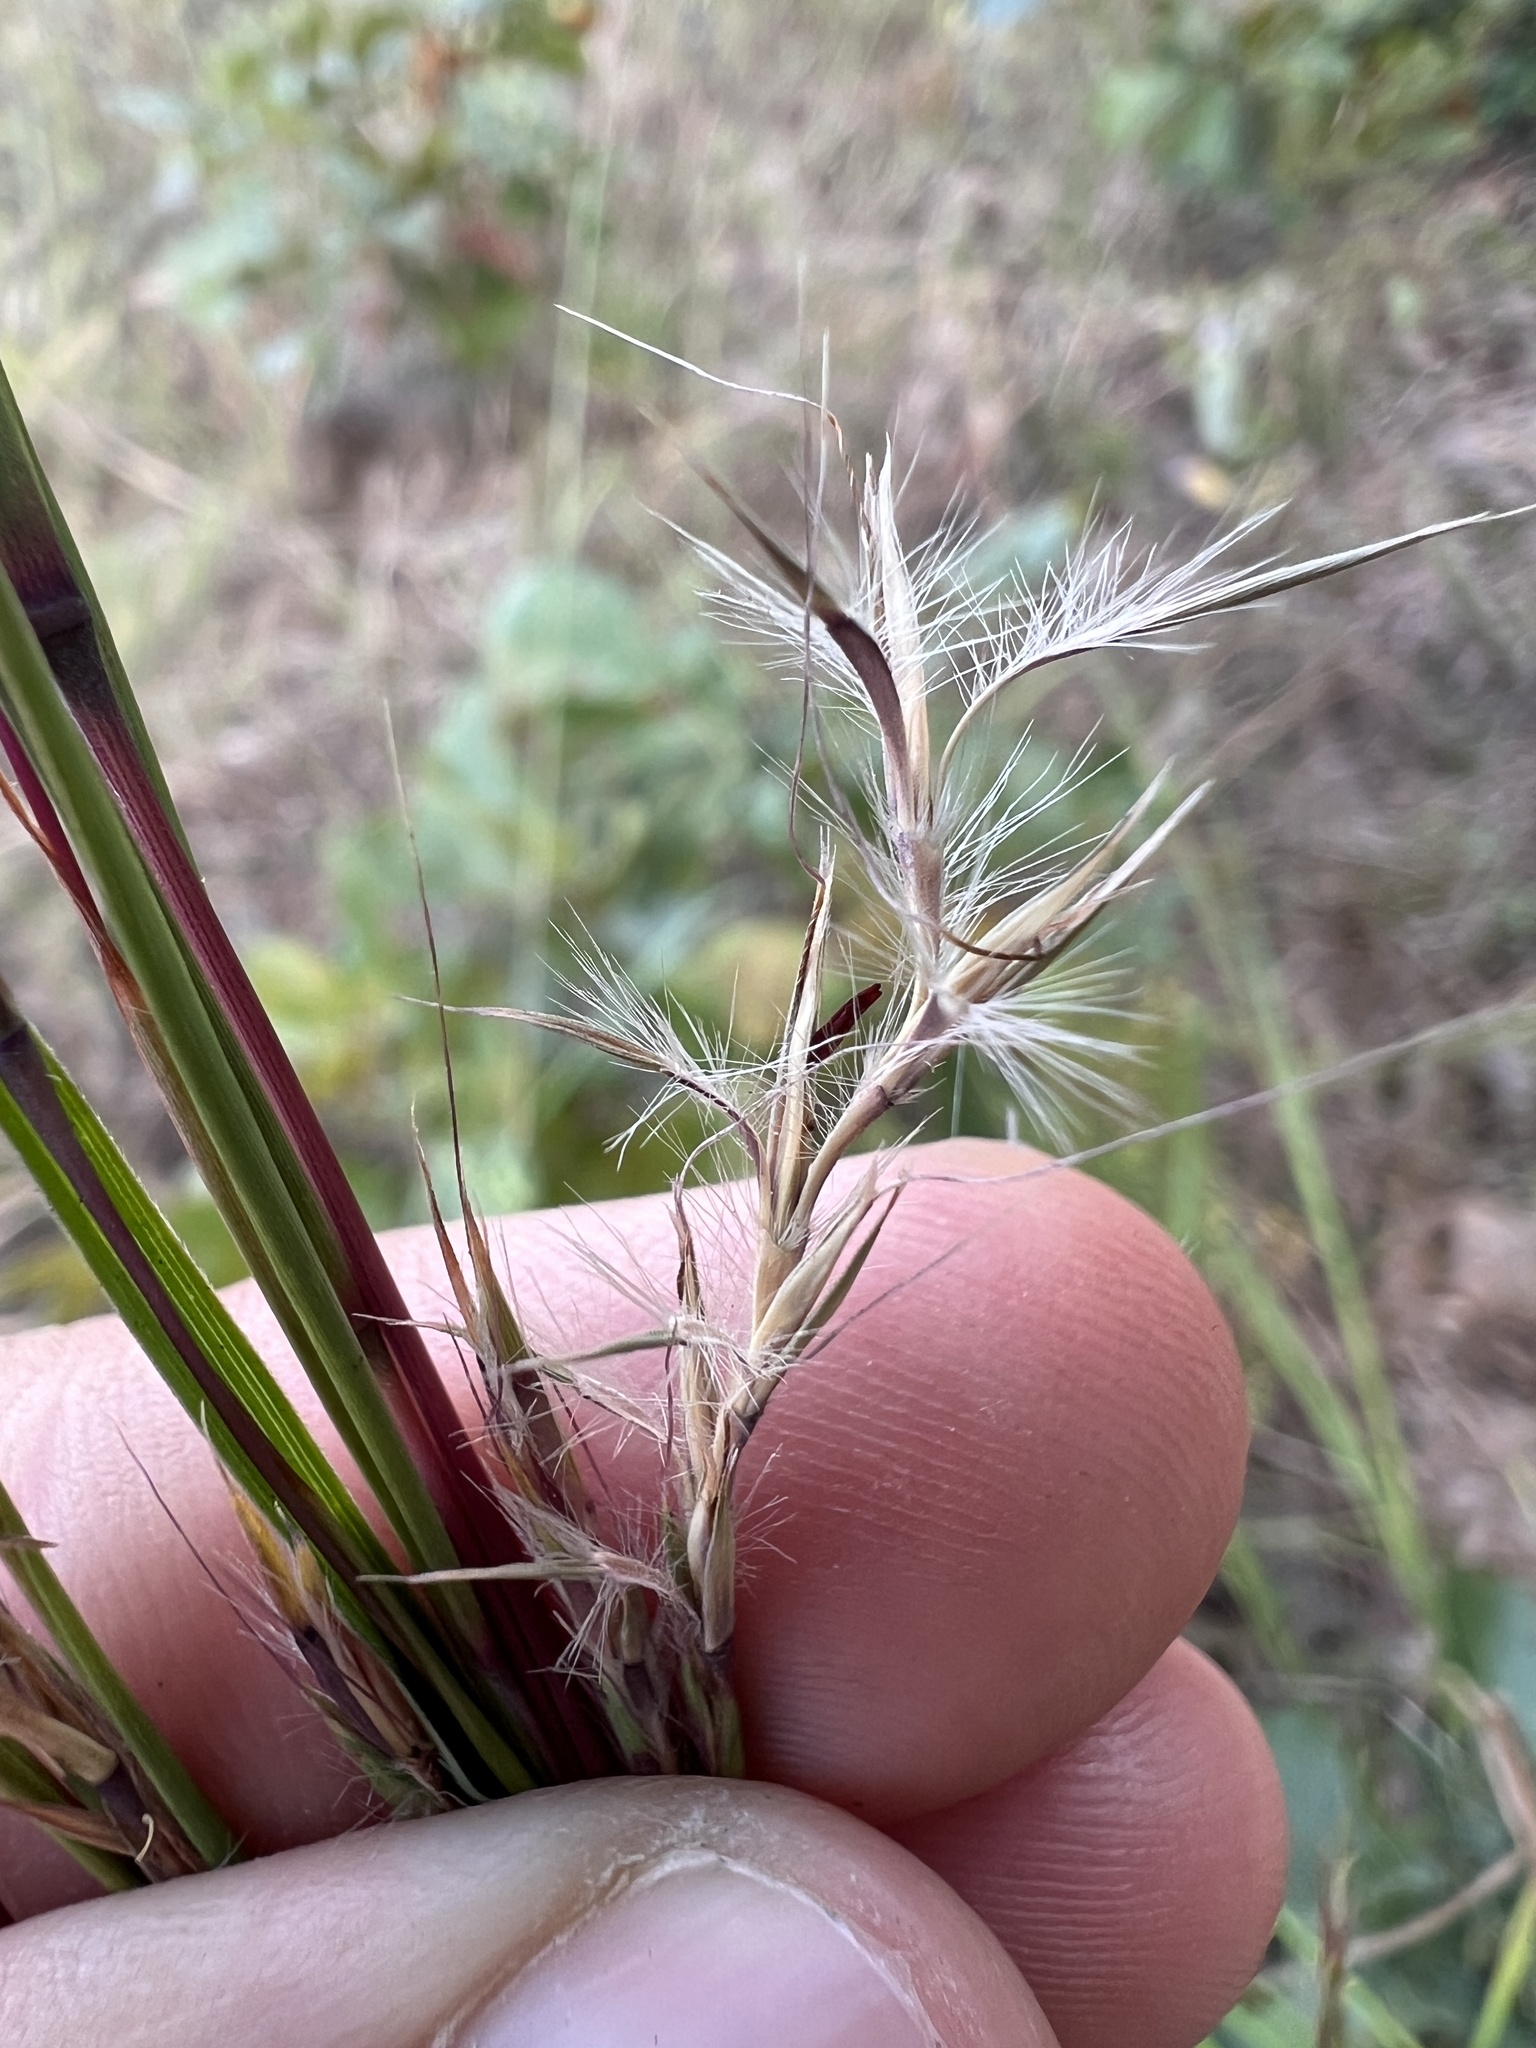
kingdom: Plantae
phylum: Tracheophyta
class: Liliopsida
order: Poales
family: Poaceae
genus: Schizachyrium
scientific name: Schizachyrium scoparium
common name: Little bluestem
